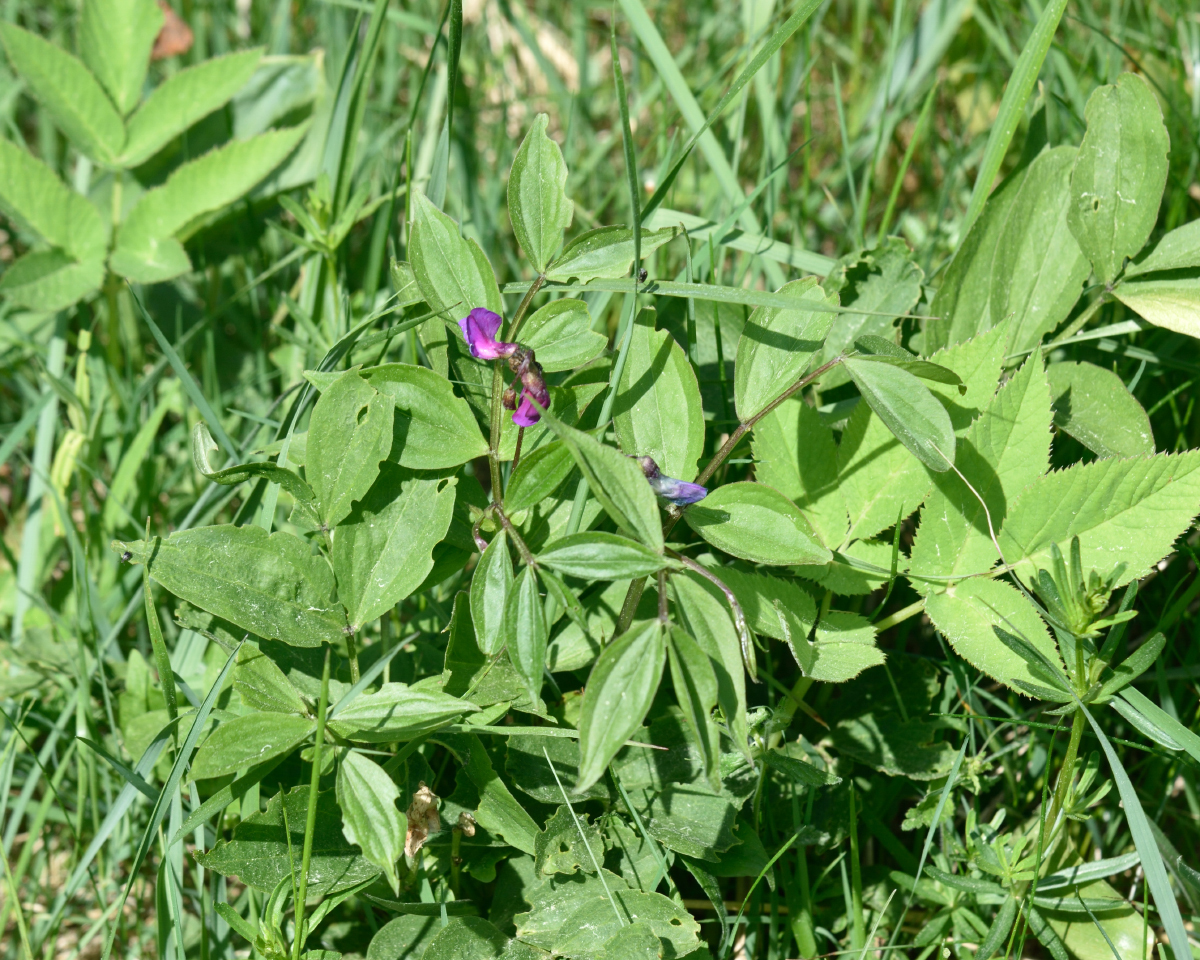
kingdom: Plantae
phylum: Tracheophyta
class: Magnoliopsida
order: Fabales
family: Fabaceae
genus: Lathyrus
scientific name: Lathyrus vernus
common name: Spring pea
